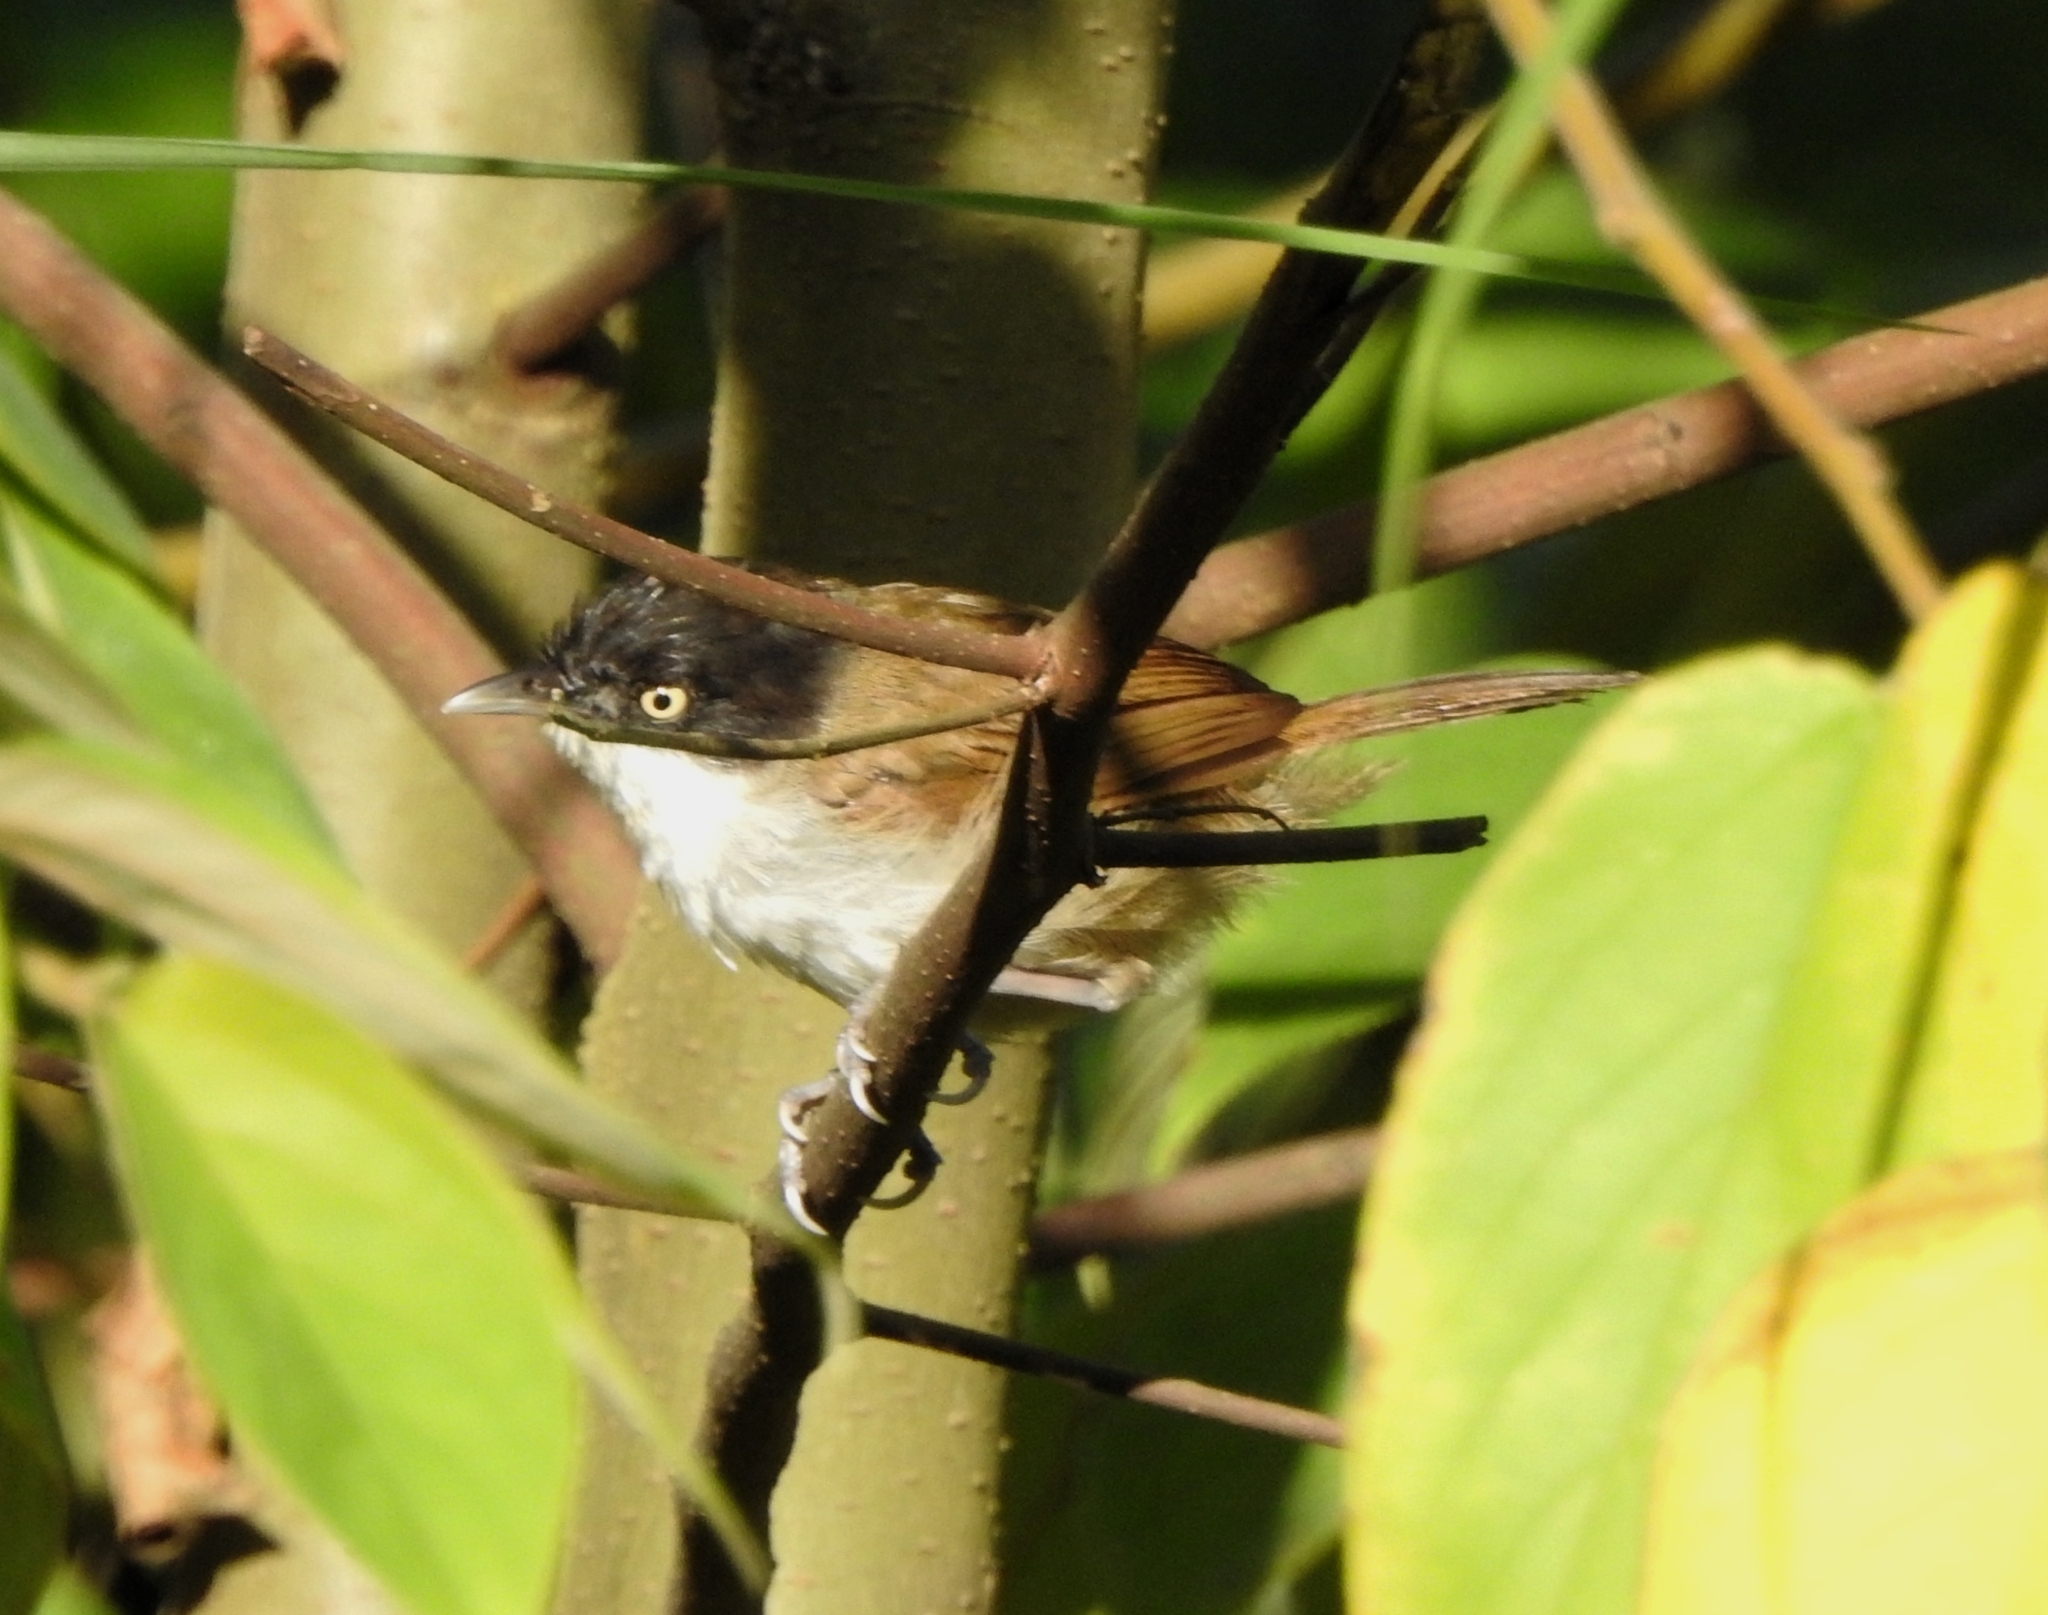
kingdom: Animalia
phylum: Chordata
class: Aves
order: Passeriformes
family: Timaliidae
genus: Rhopocichla
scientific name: Rhopocichla atriceps
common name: Dark-fronted babbler
